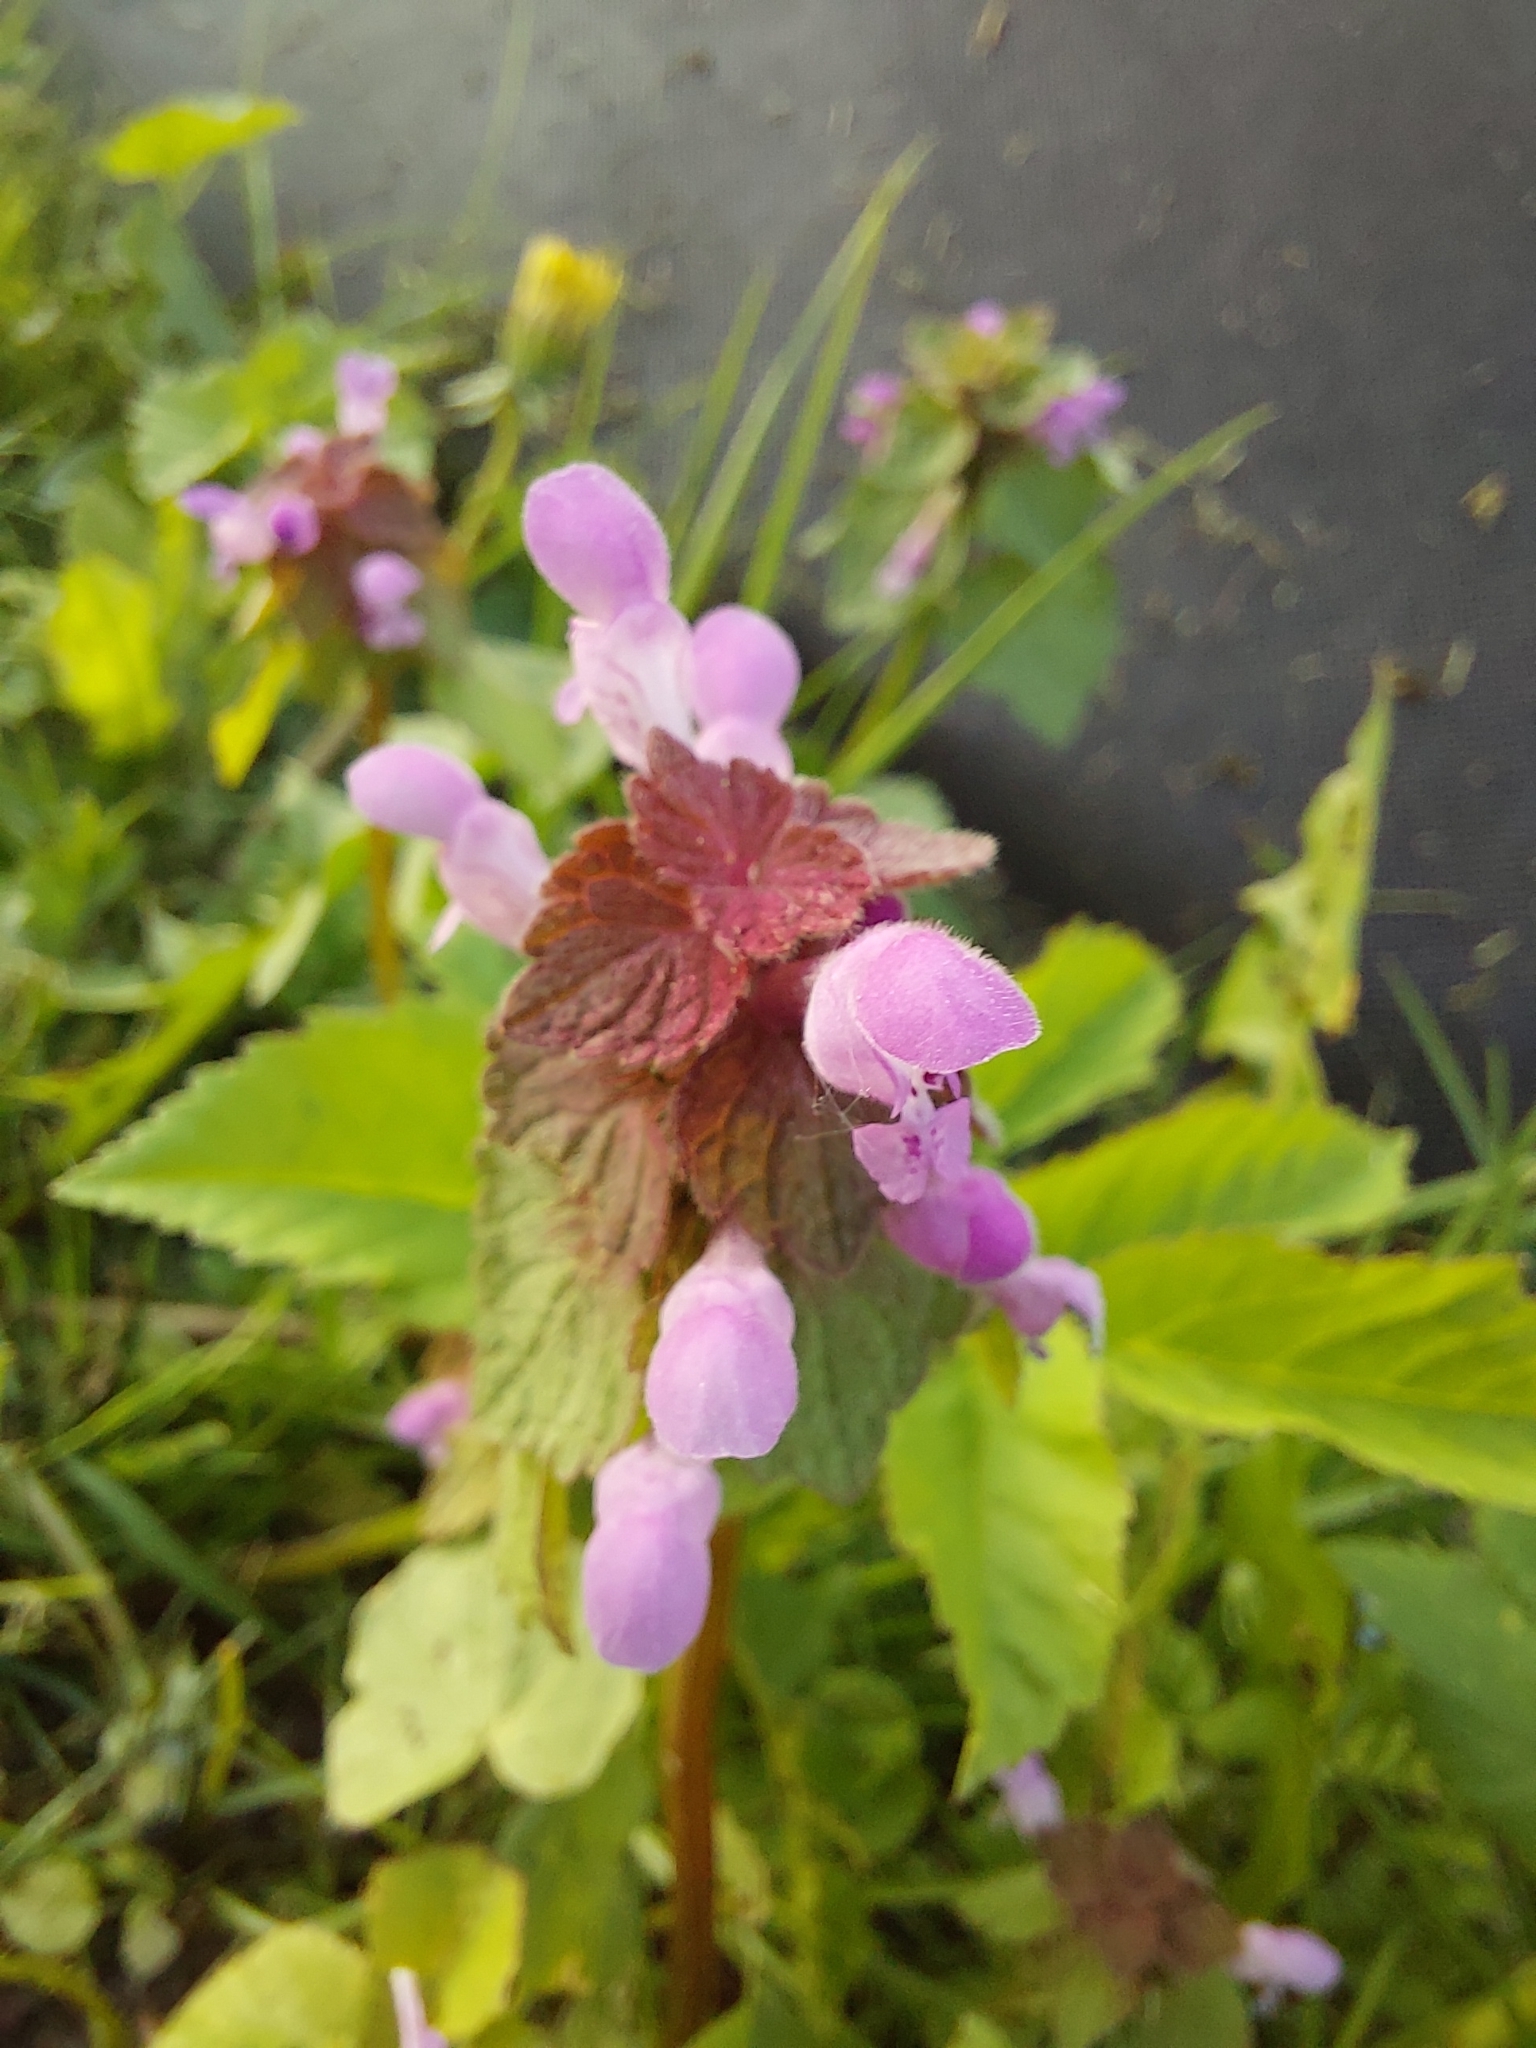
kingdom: Plantae
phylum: Tracheophyta
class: Magnoliopsida
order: Lamiales
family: Lamiaceae
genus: Lamium
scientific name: Lamium purpureum
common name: Red dead-nettle
